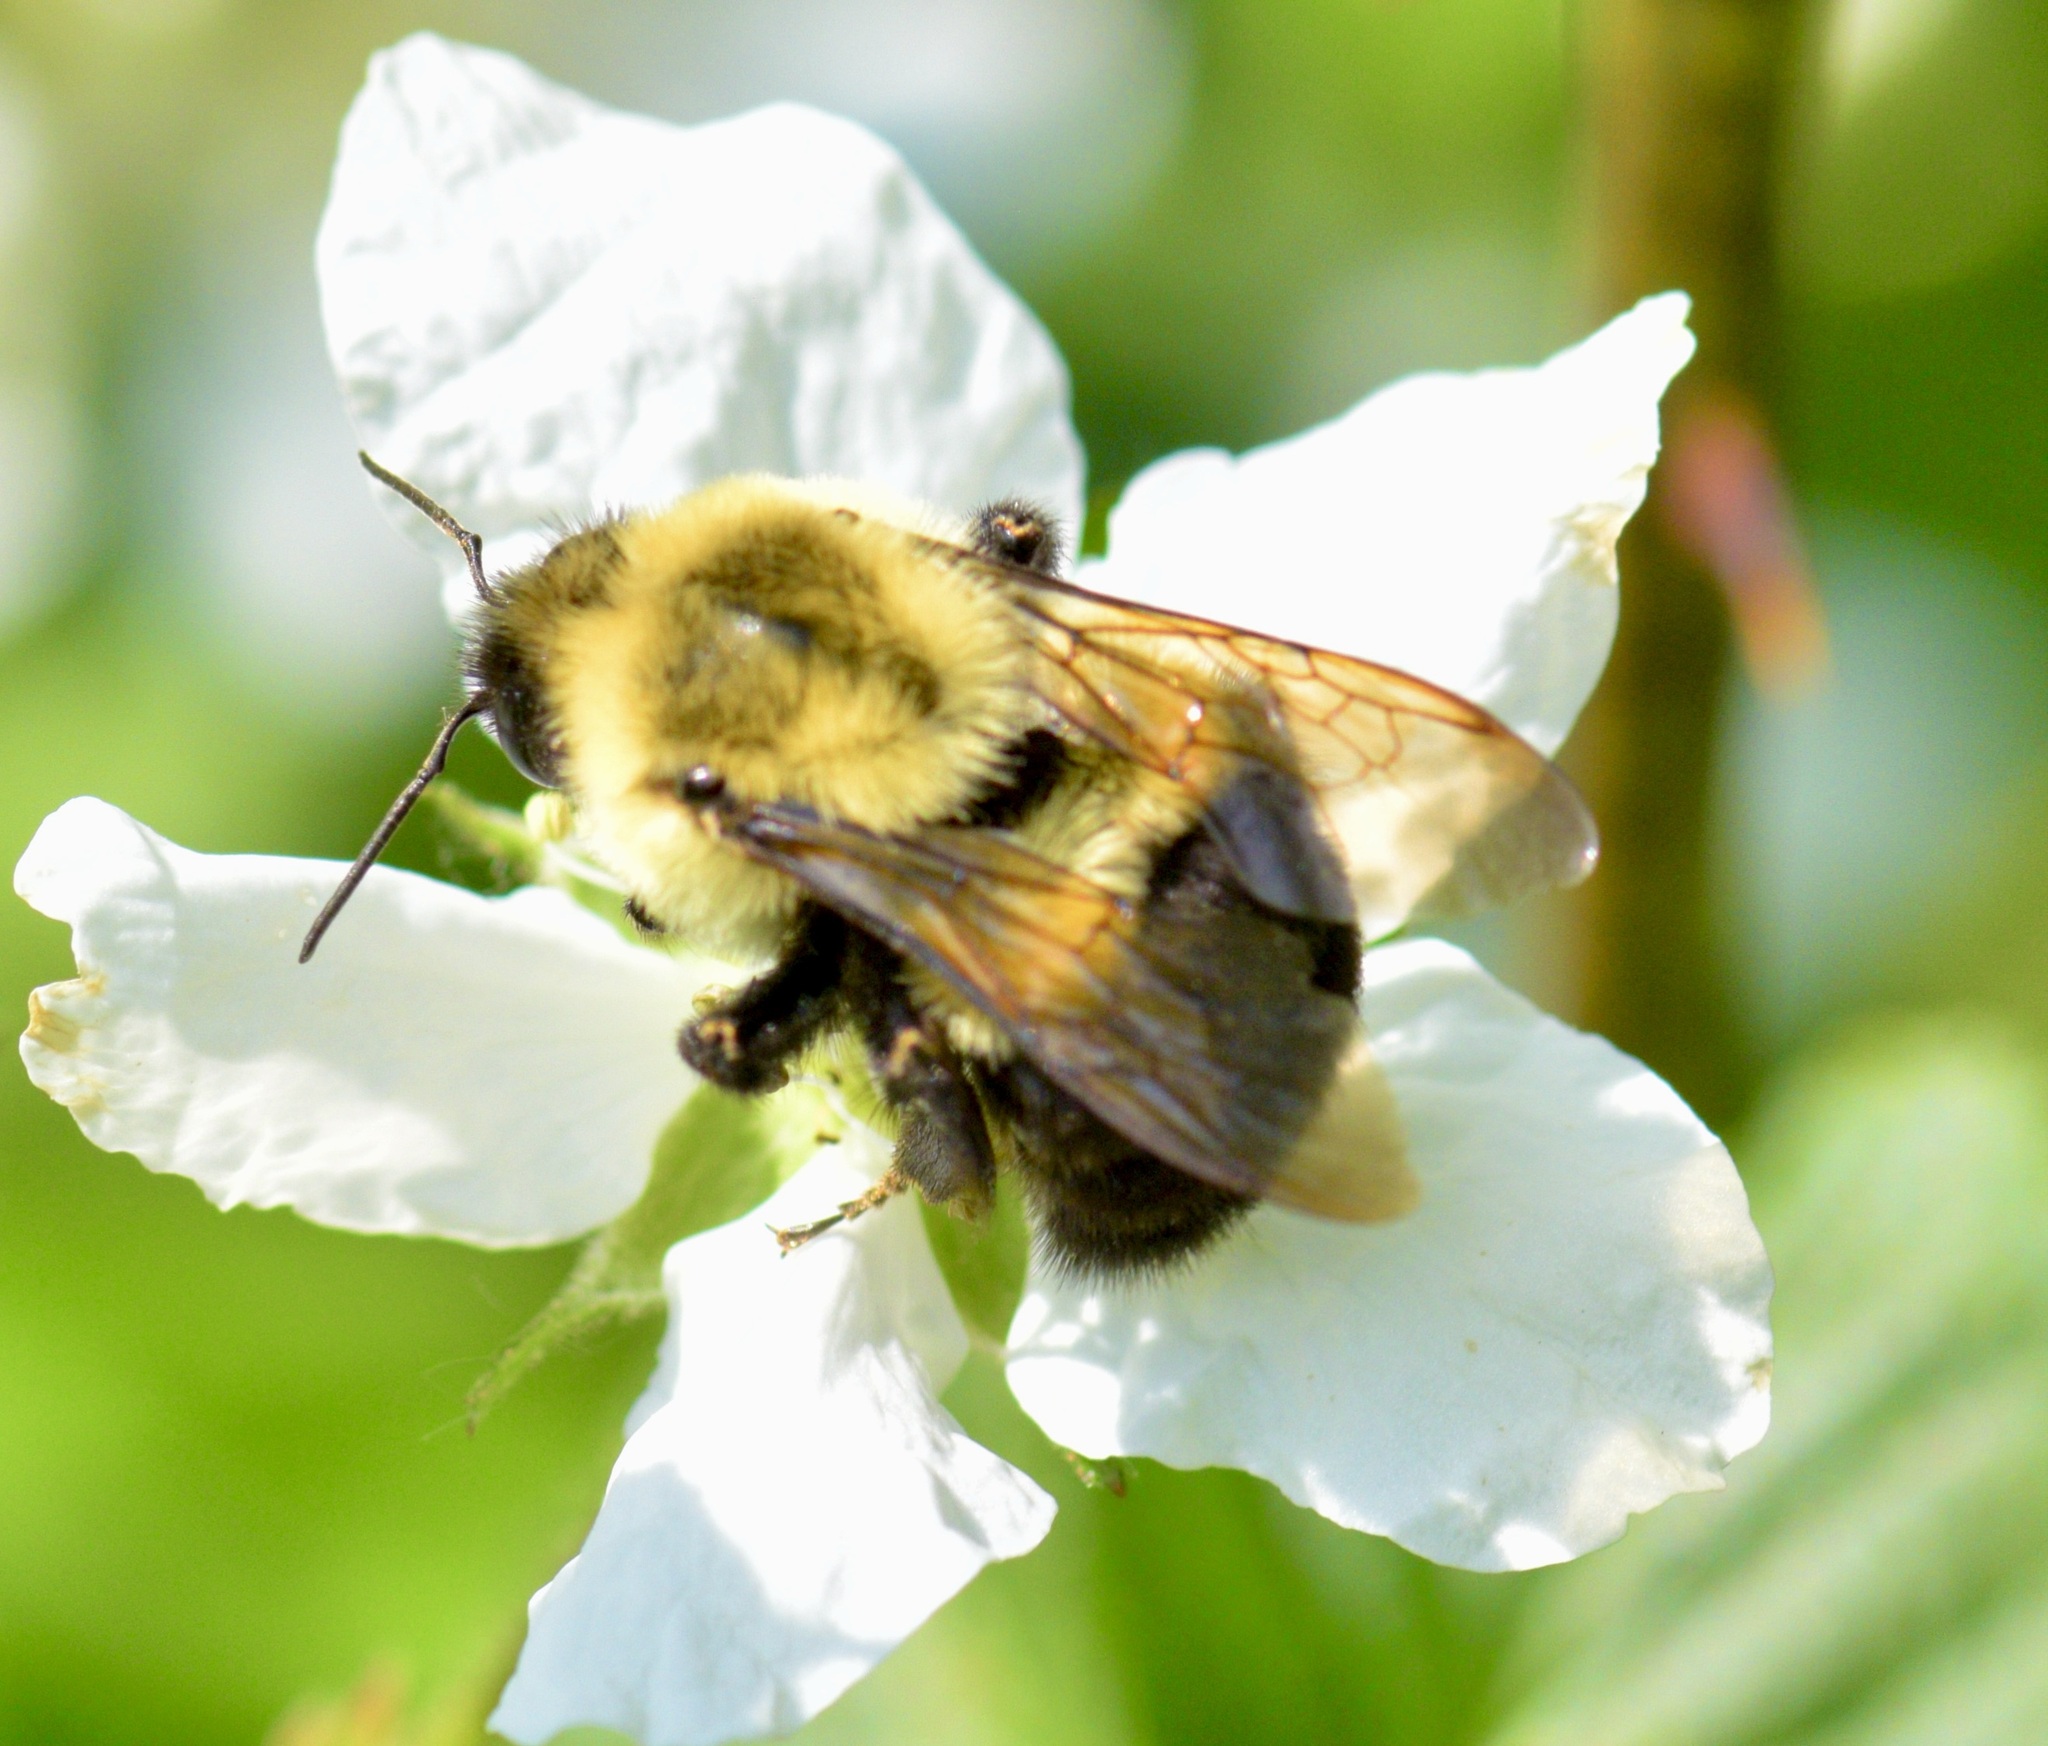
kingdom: Animalia
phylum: Arthropoda
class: Insecta
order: Hymenoptera
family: Apidae
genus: Bombus
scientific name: Bombus impatiens
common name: Common eastern bumble bee
